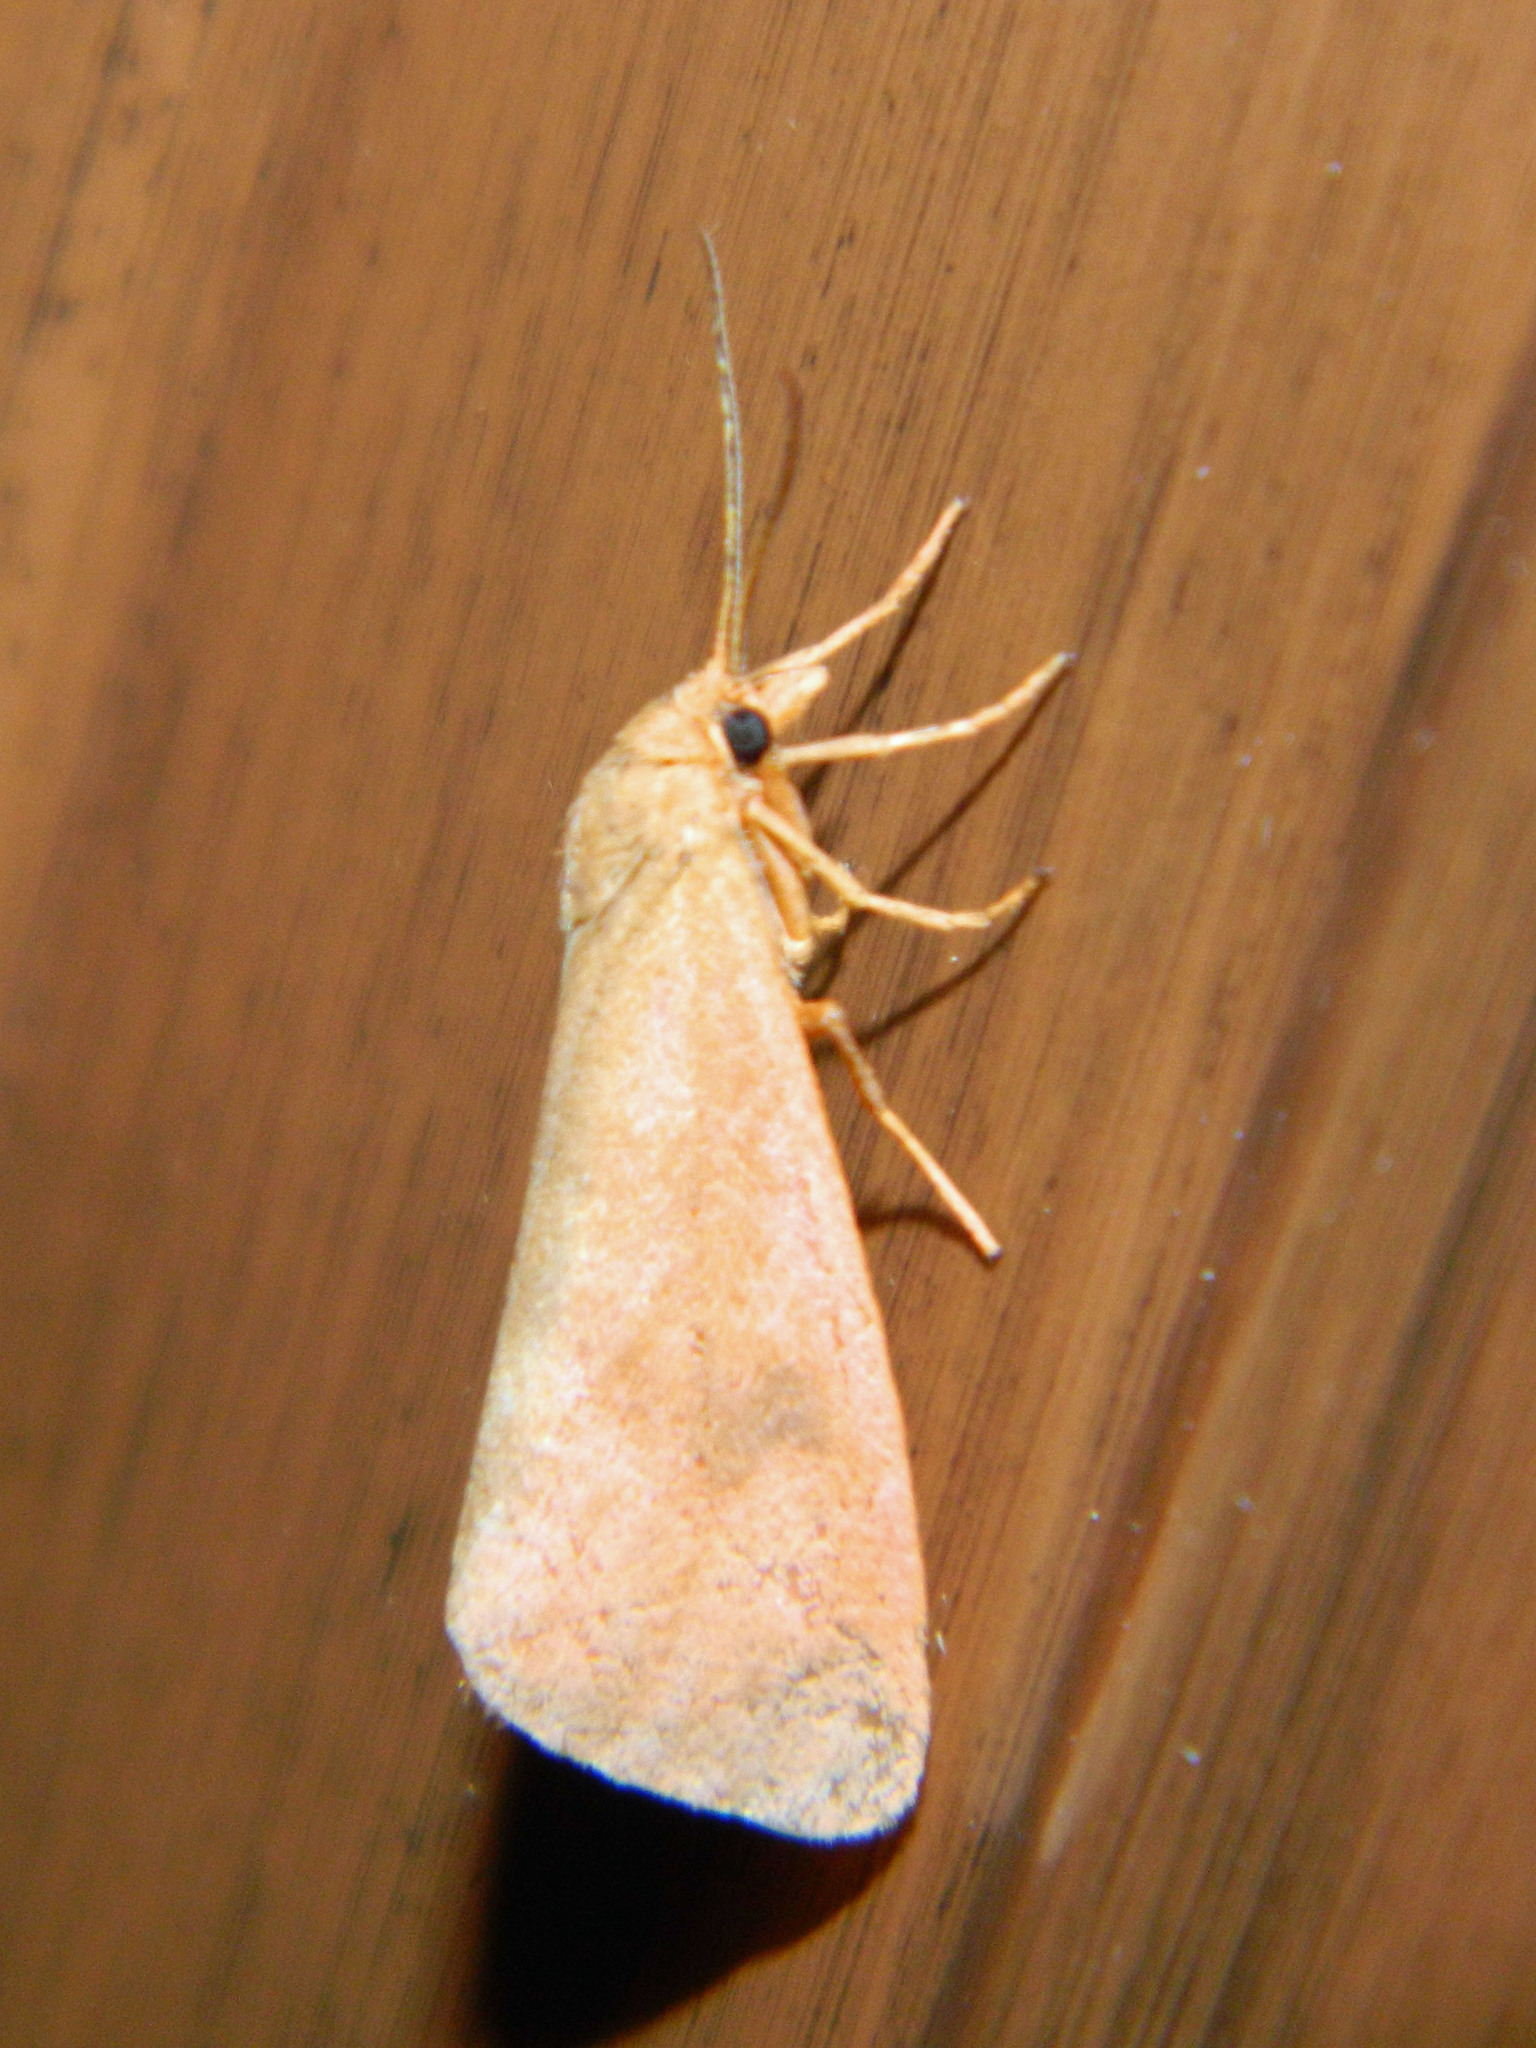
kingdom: Animalia
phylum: Arthropoda
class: Insecta
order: Lepidoptera
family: Erebidae
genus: Virbia
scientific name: Virbia ferruginosa
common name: Rusty virbia moth
